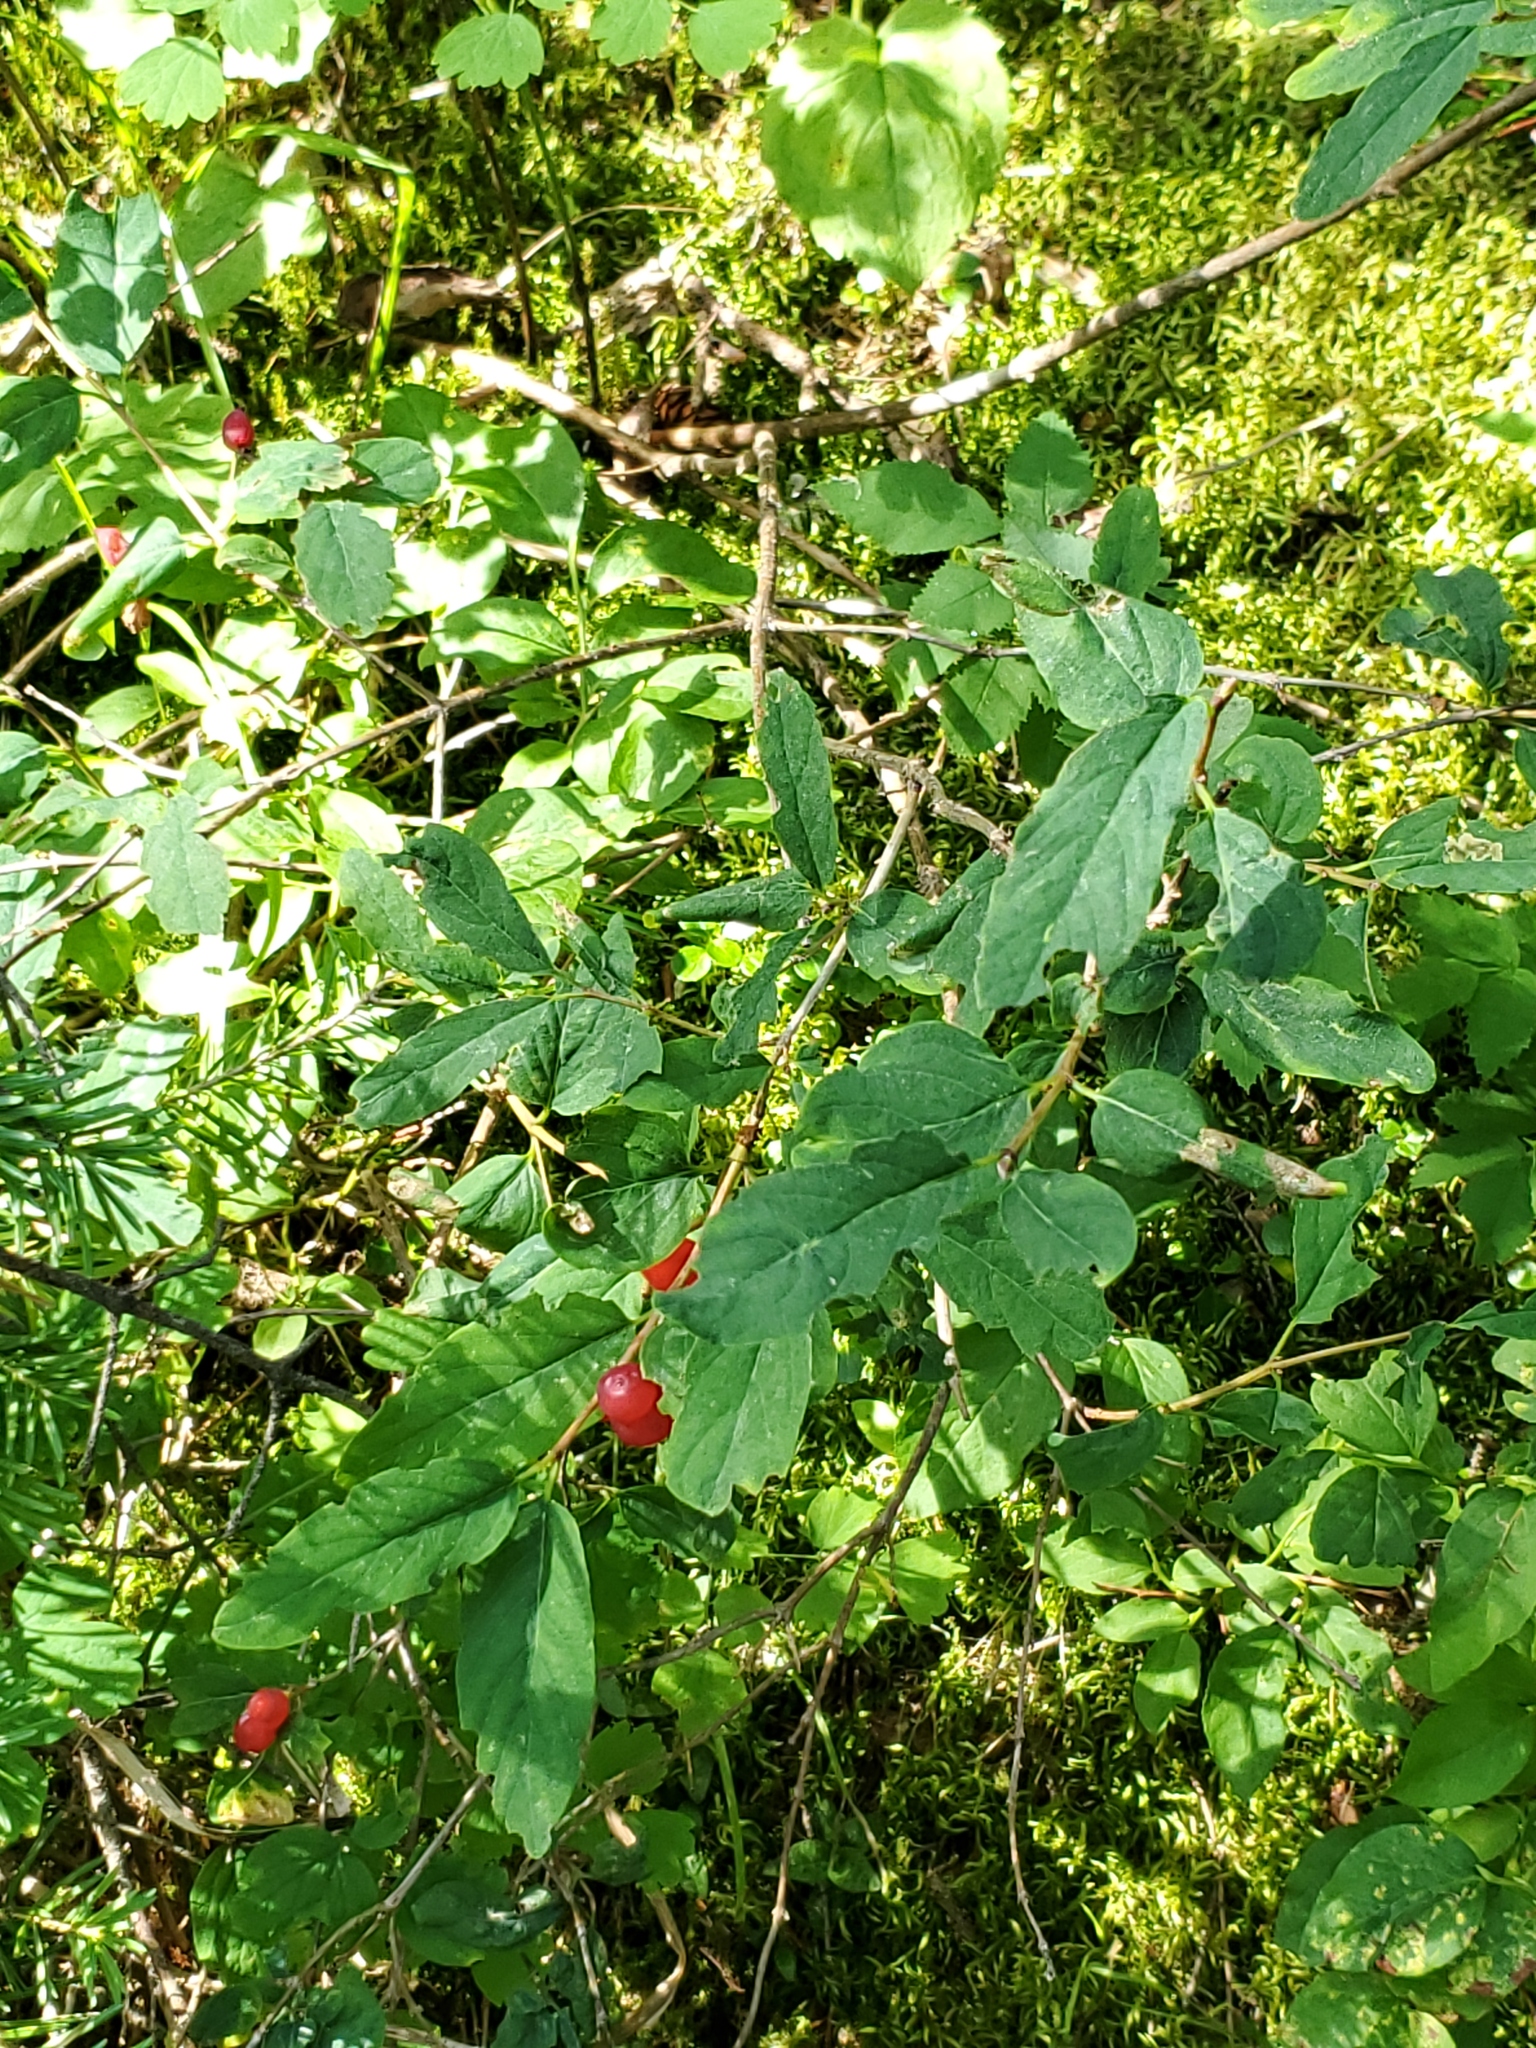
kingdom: Plantae
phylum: Tracheophyta
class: Magnoliopsida
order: Dipsacales
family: Caprifoliaceae
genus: Lonicera
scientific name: Lonicera utahensis
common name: Utah honeysuckle
